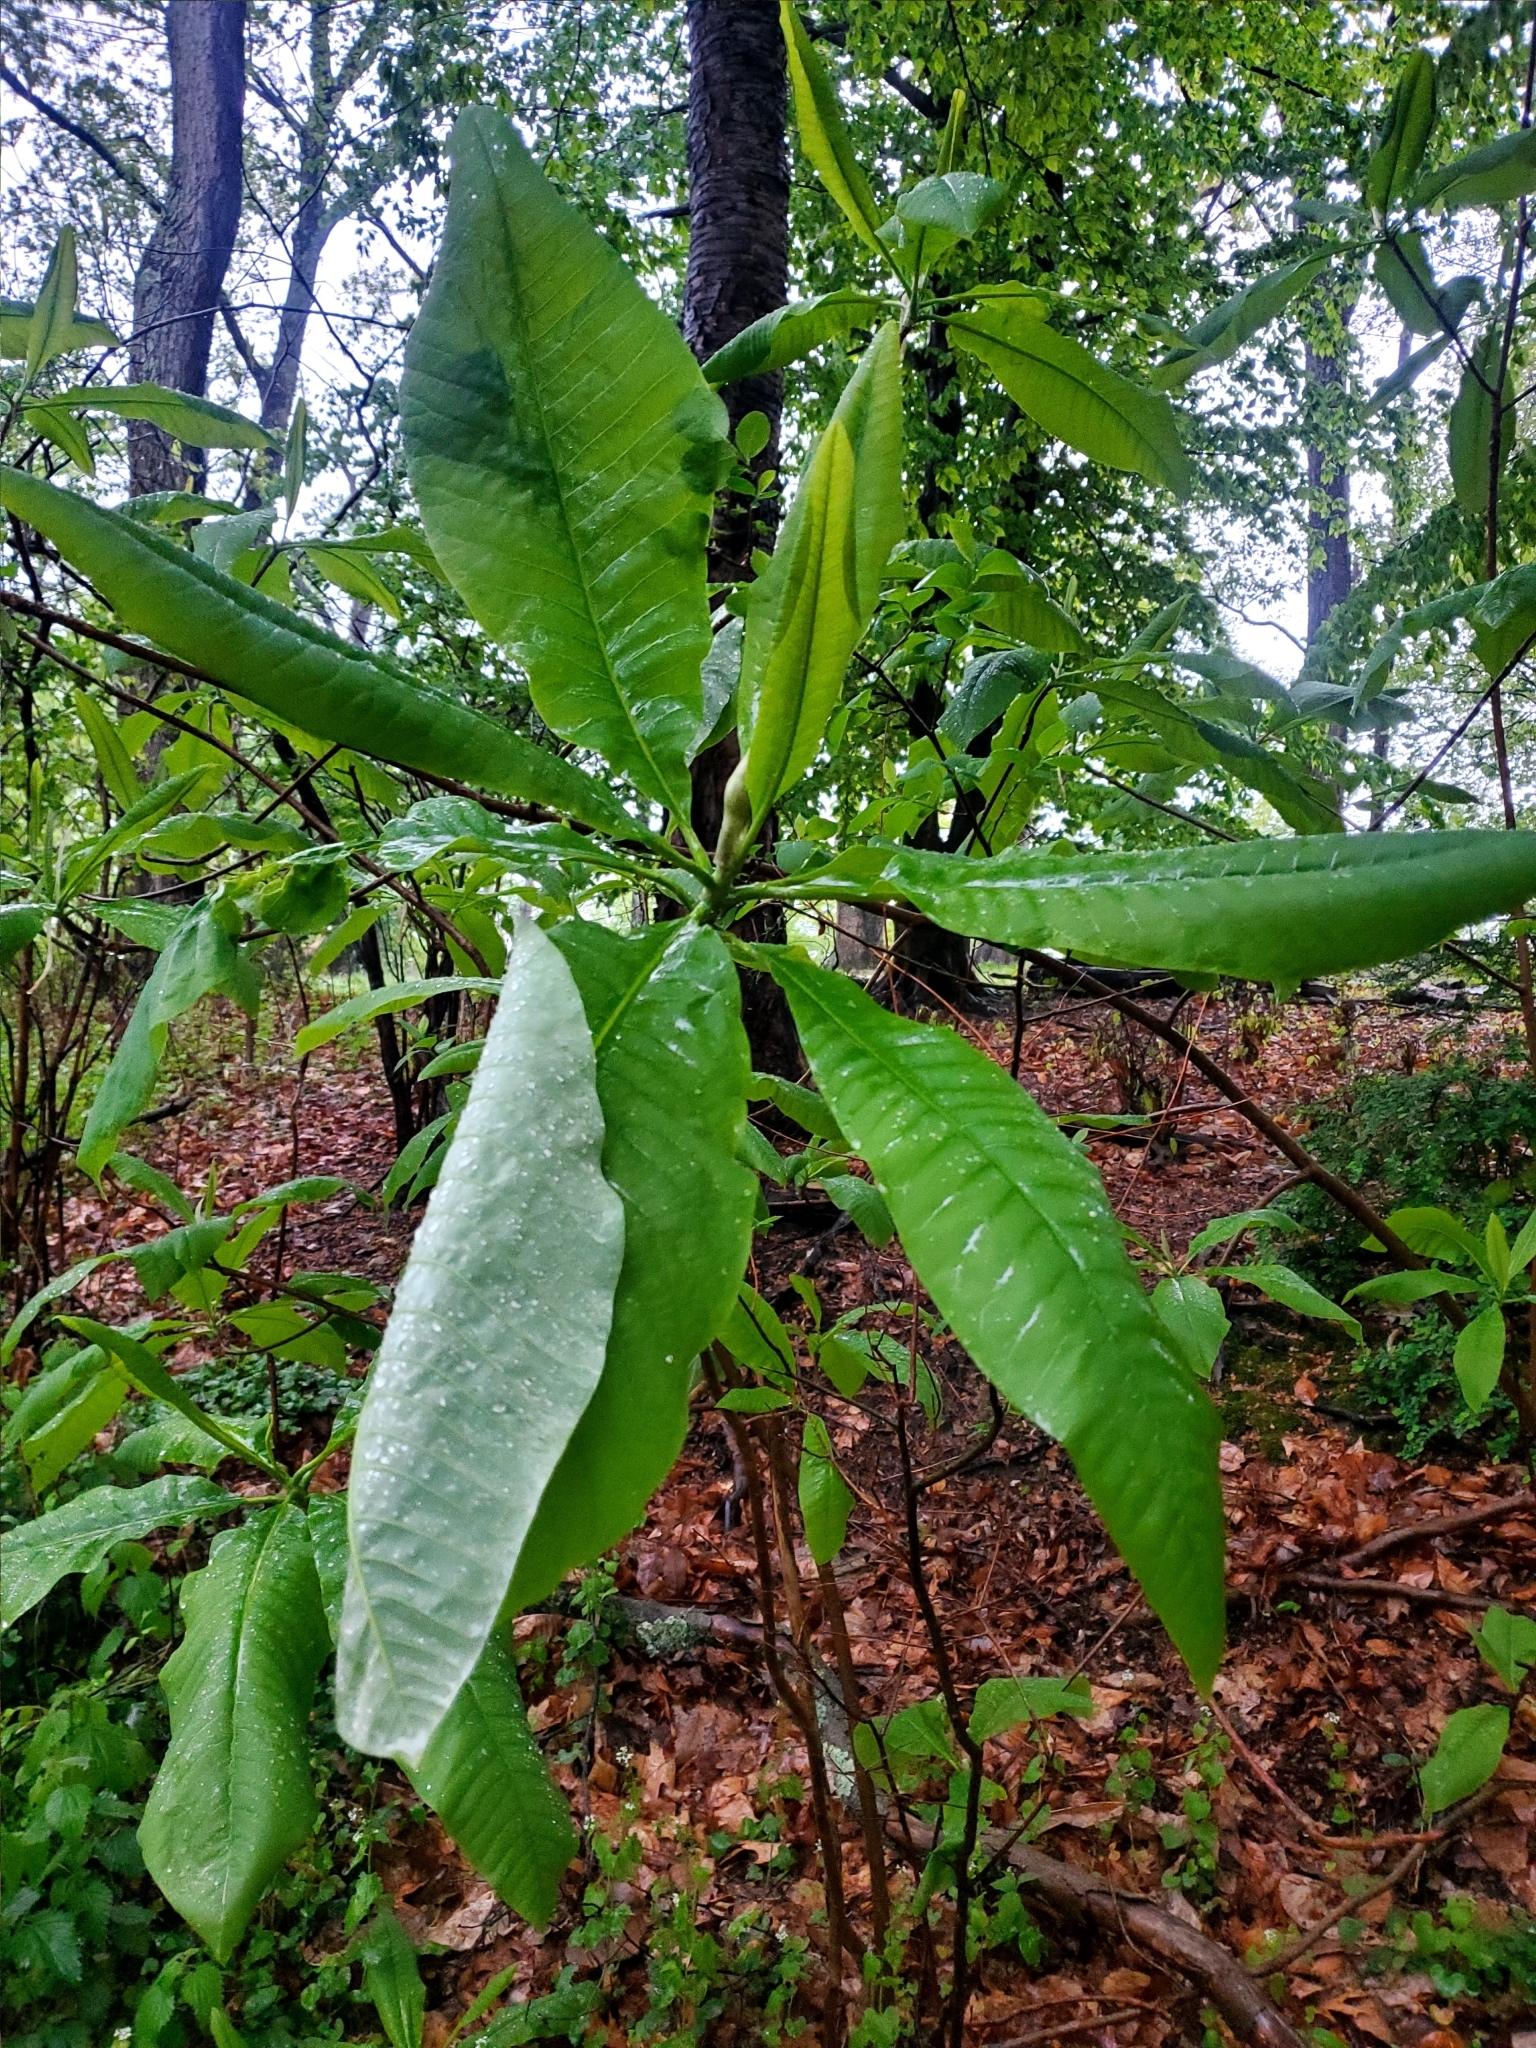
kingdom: Plantae
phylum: Tracheophyta
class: Magnoliopsida
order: Magnoliales
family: Magnoliaceae
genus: Magnolia
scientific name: Magnolia tripetala
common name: Umbrella magnolia
